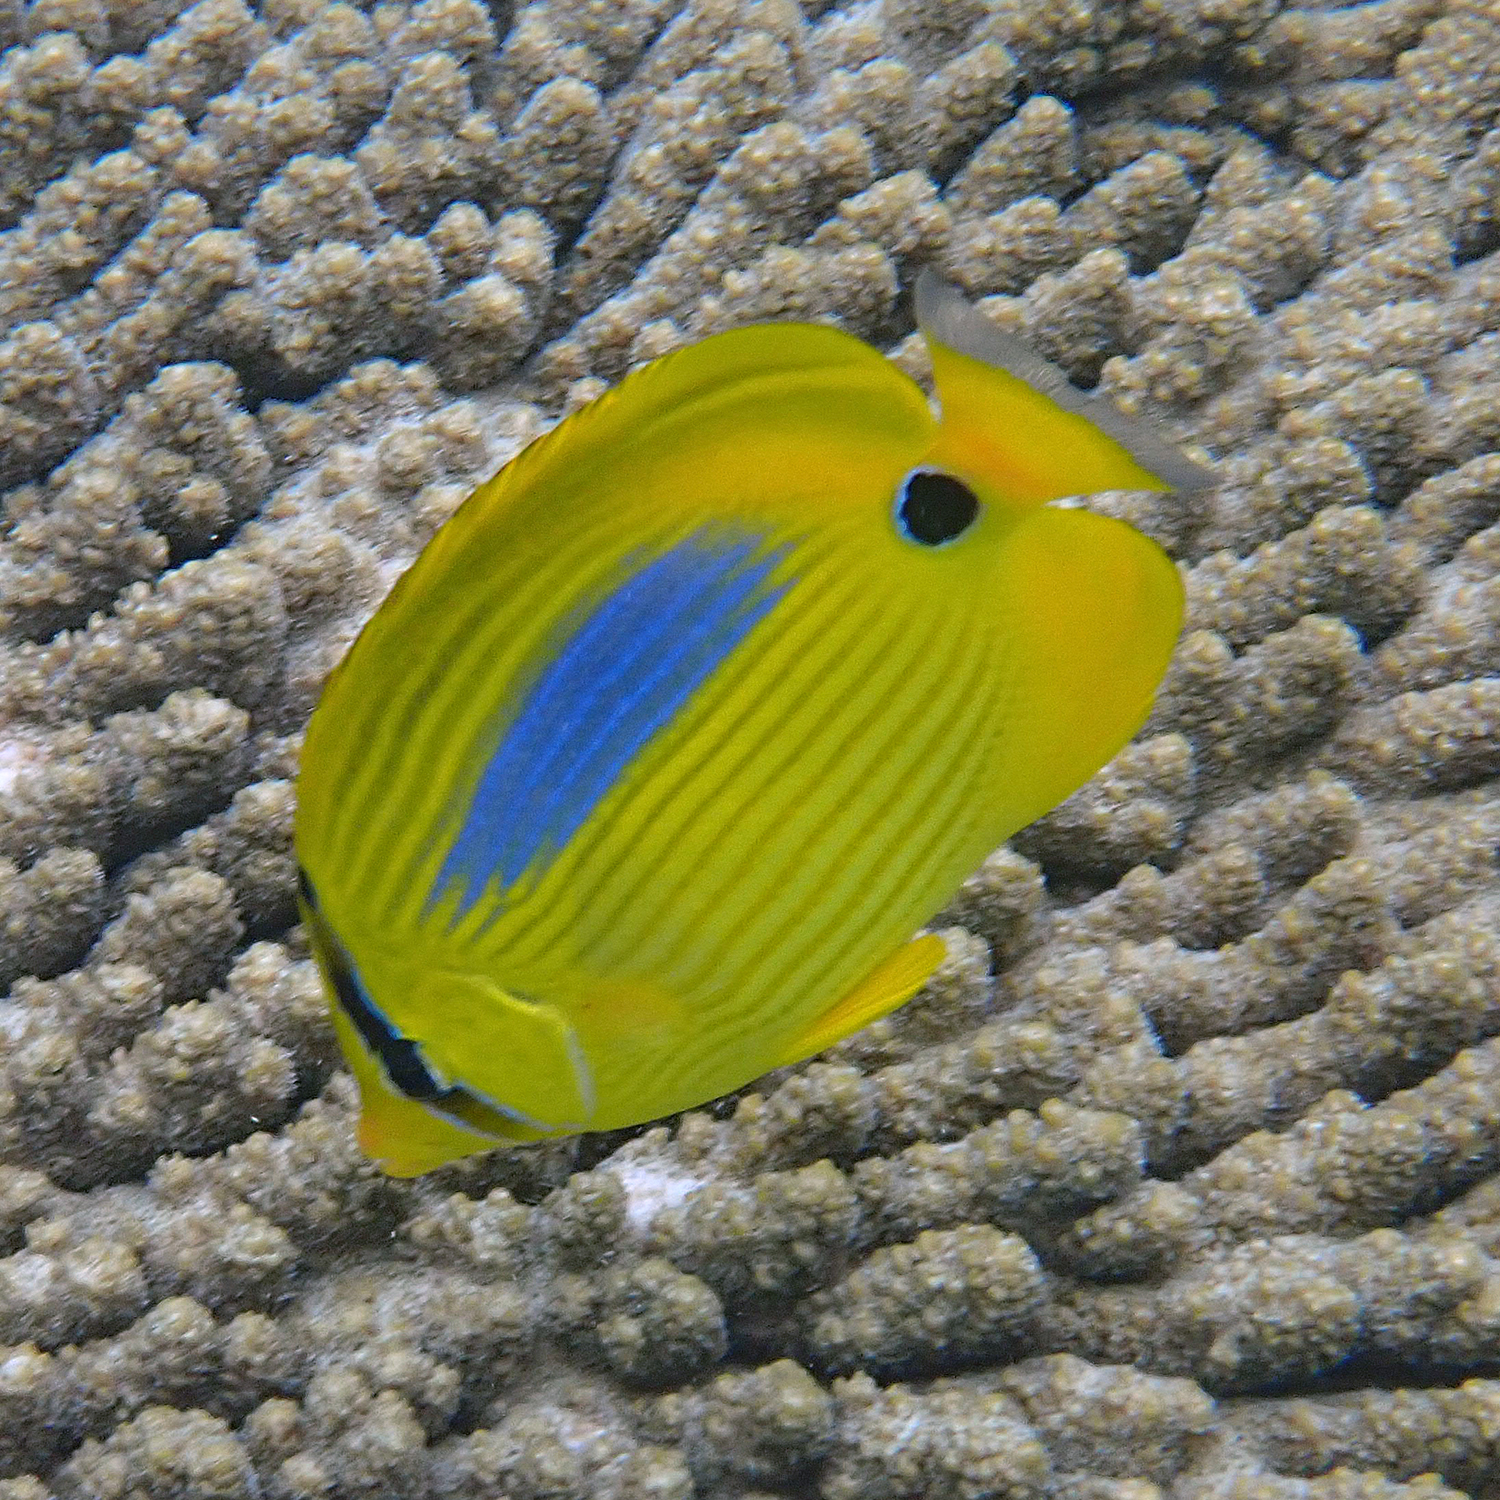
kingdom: Animalia
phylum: Chordata
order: Perciformes
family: Chaetodontidae
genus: Chaetodon
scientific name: Chaetodon plebeius
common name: Bluespot butterflyfish
